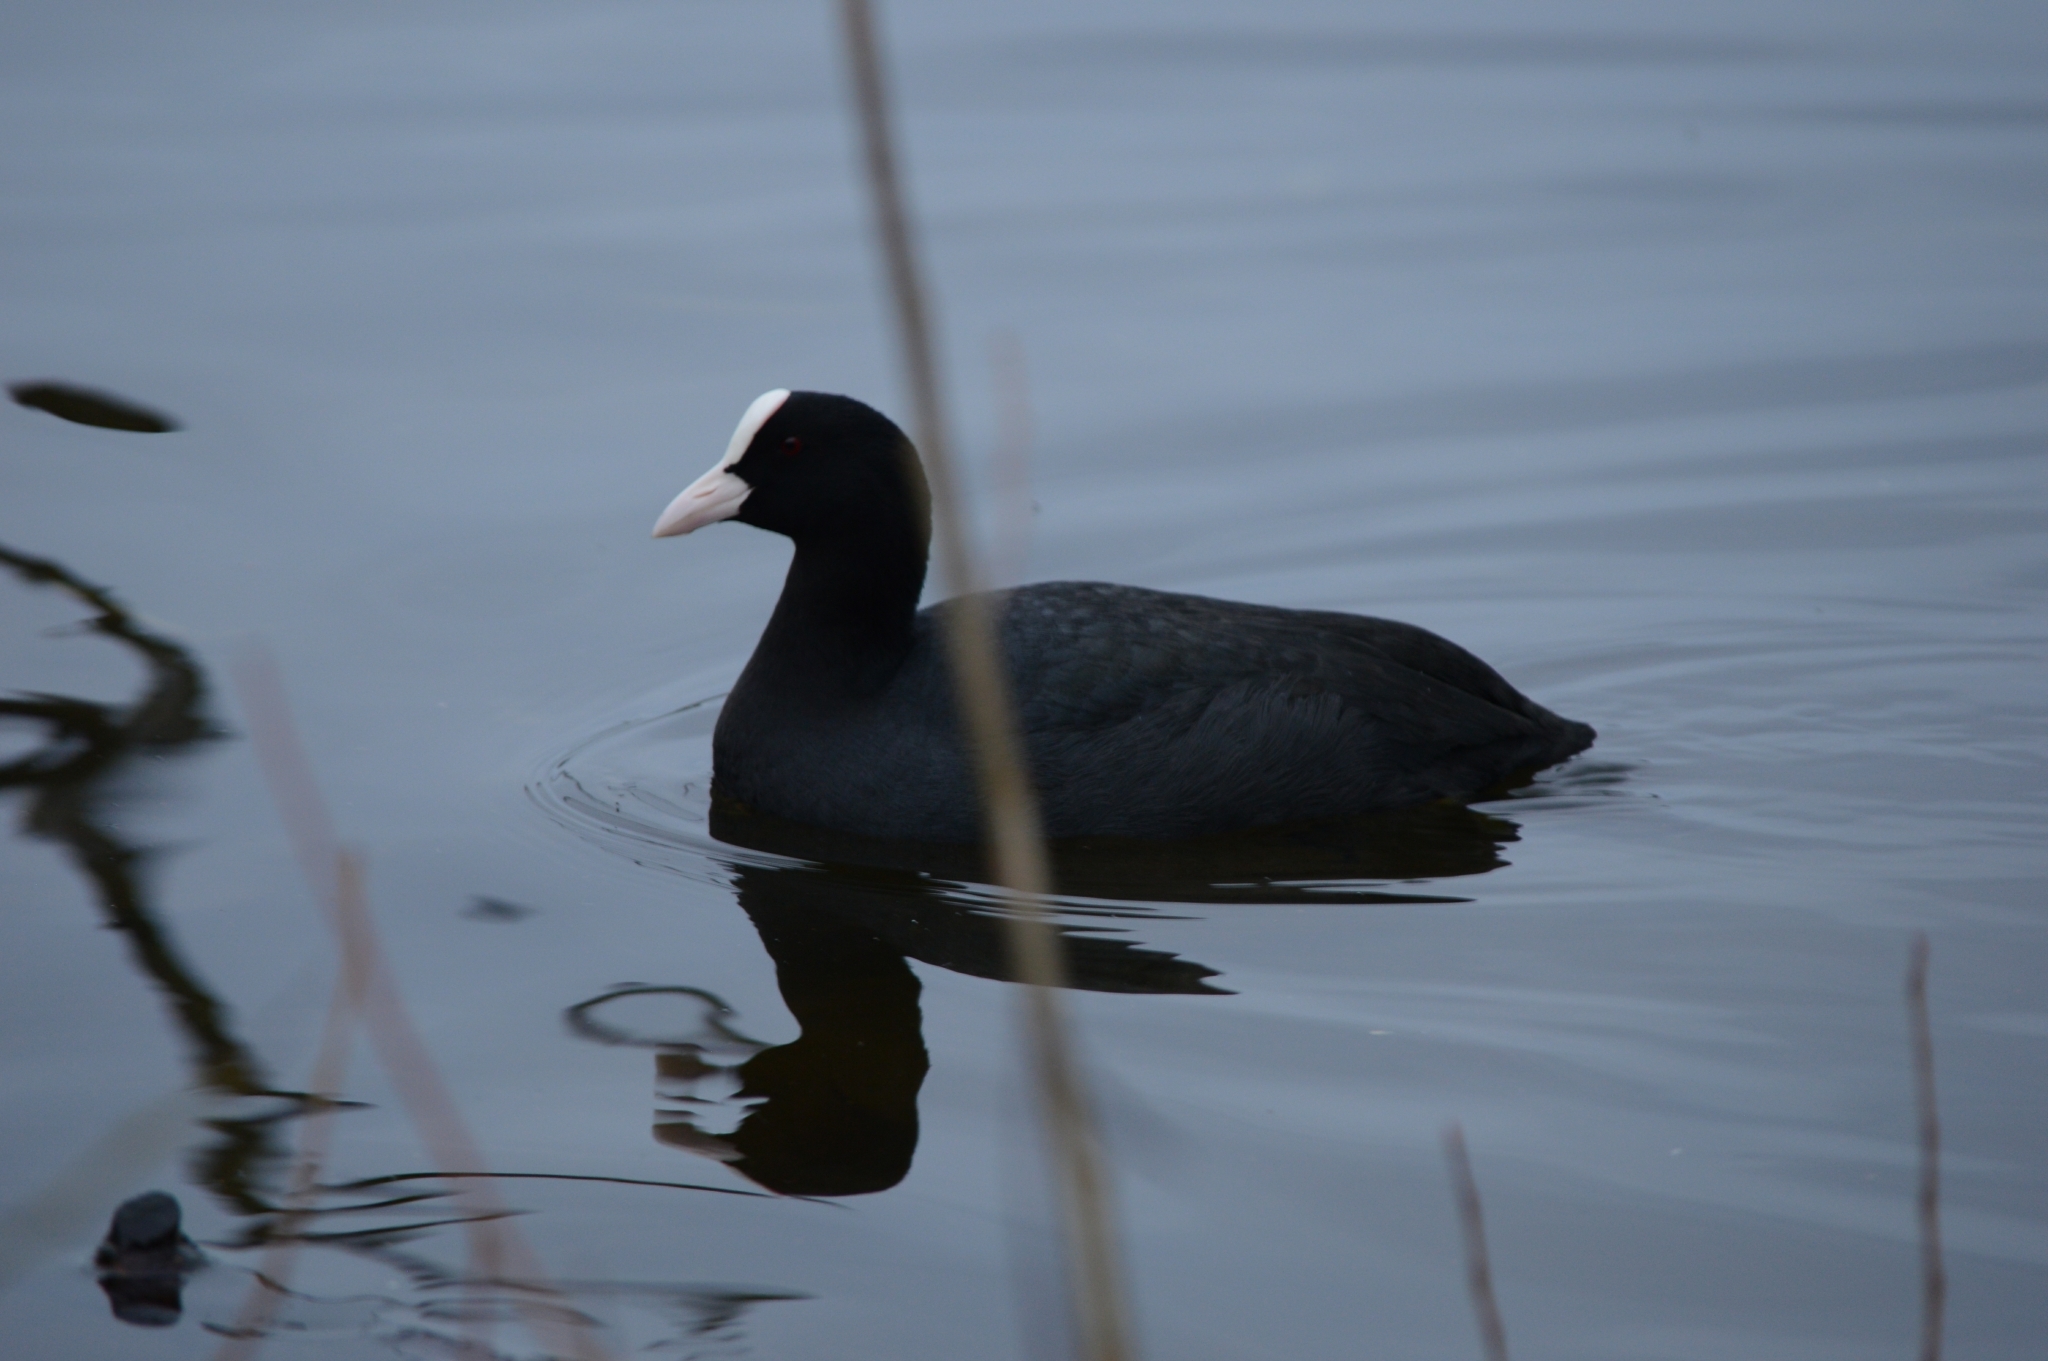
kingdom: Animalia
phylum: Chordata
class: Aves
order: Gruiformes
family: Rallidae
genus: Fulica
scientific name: Fulica atra
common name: Eurasian coot
